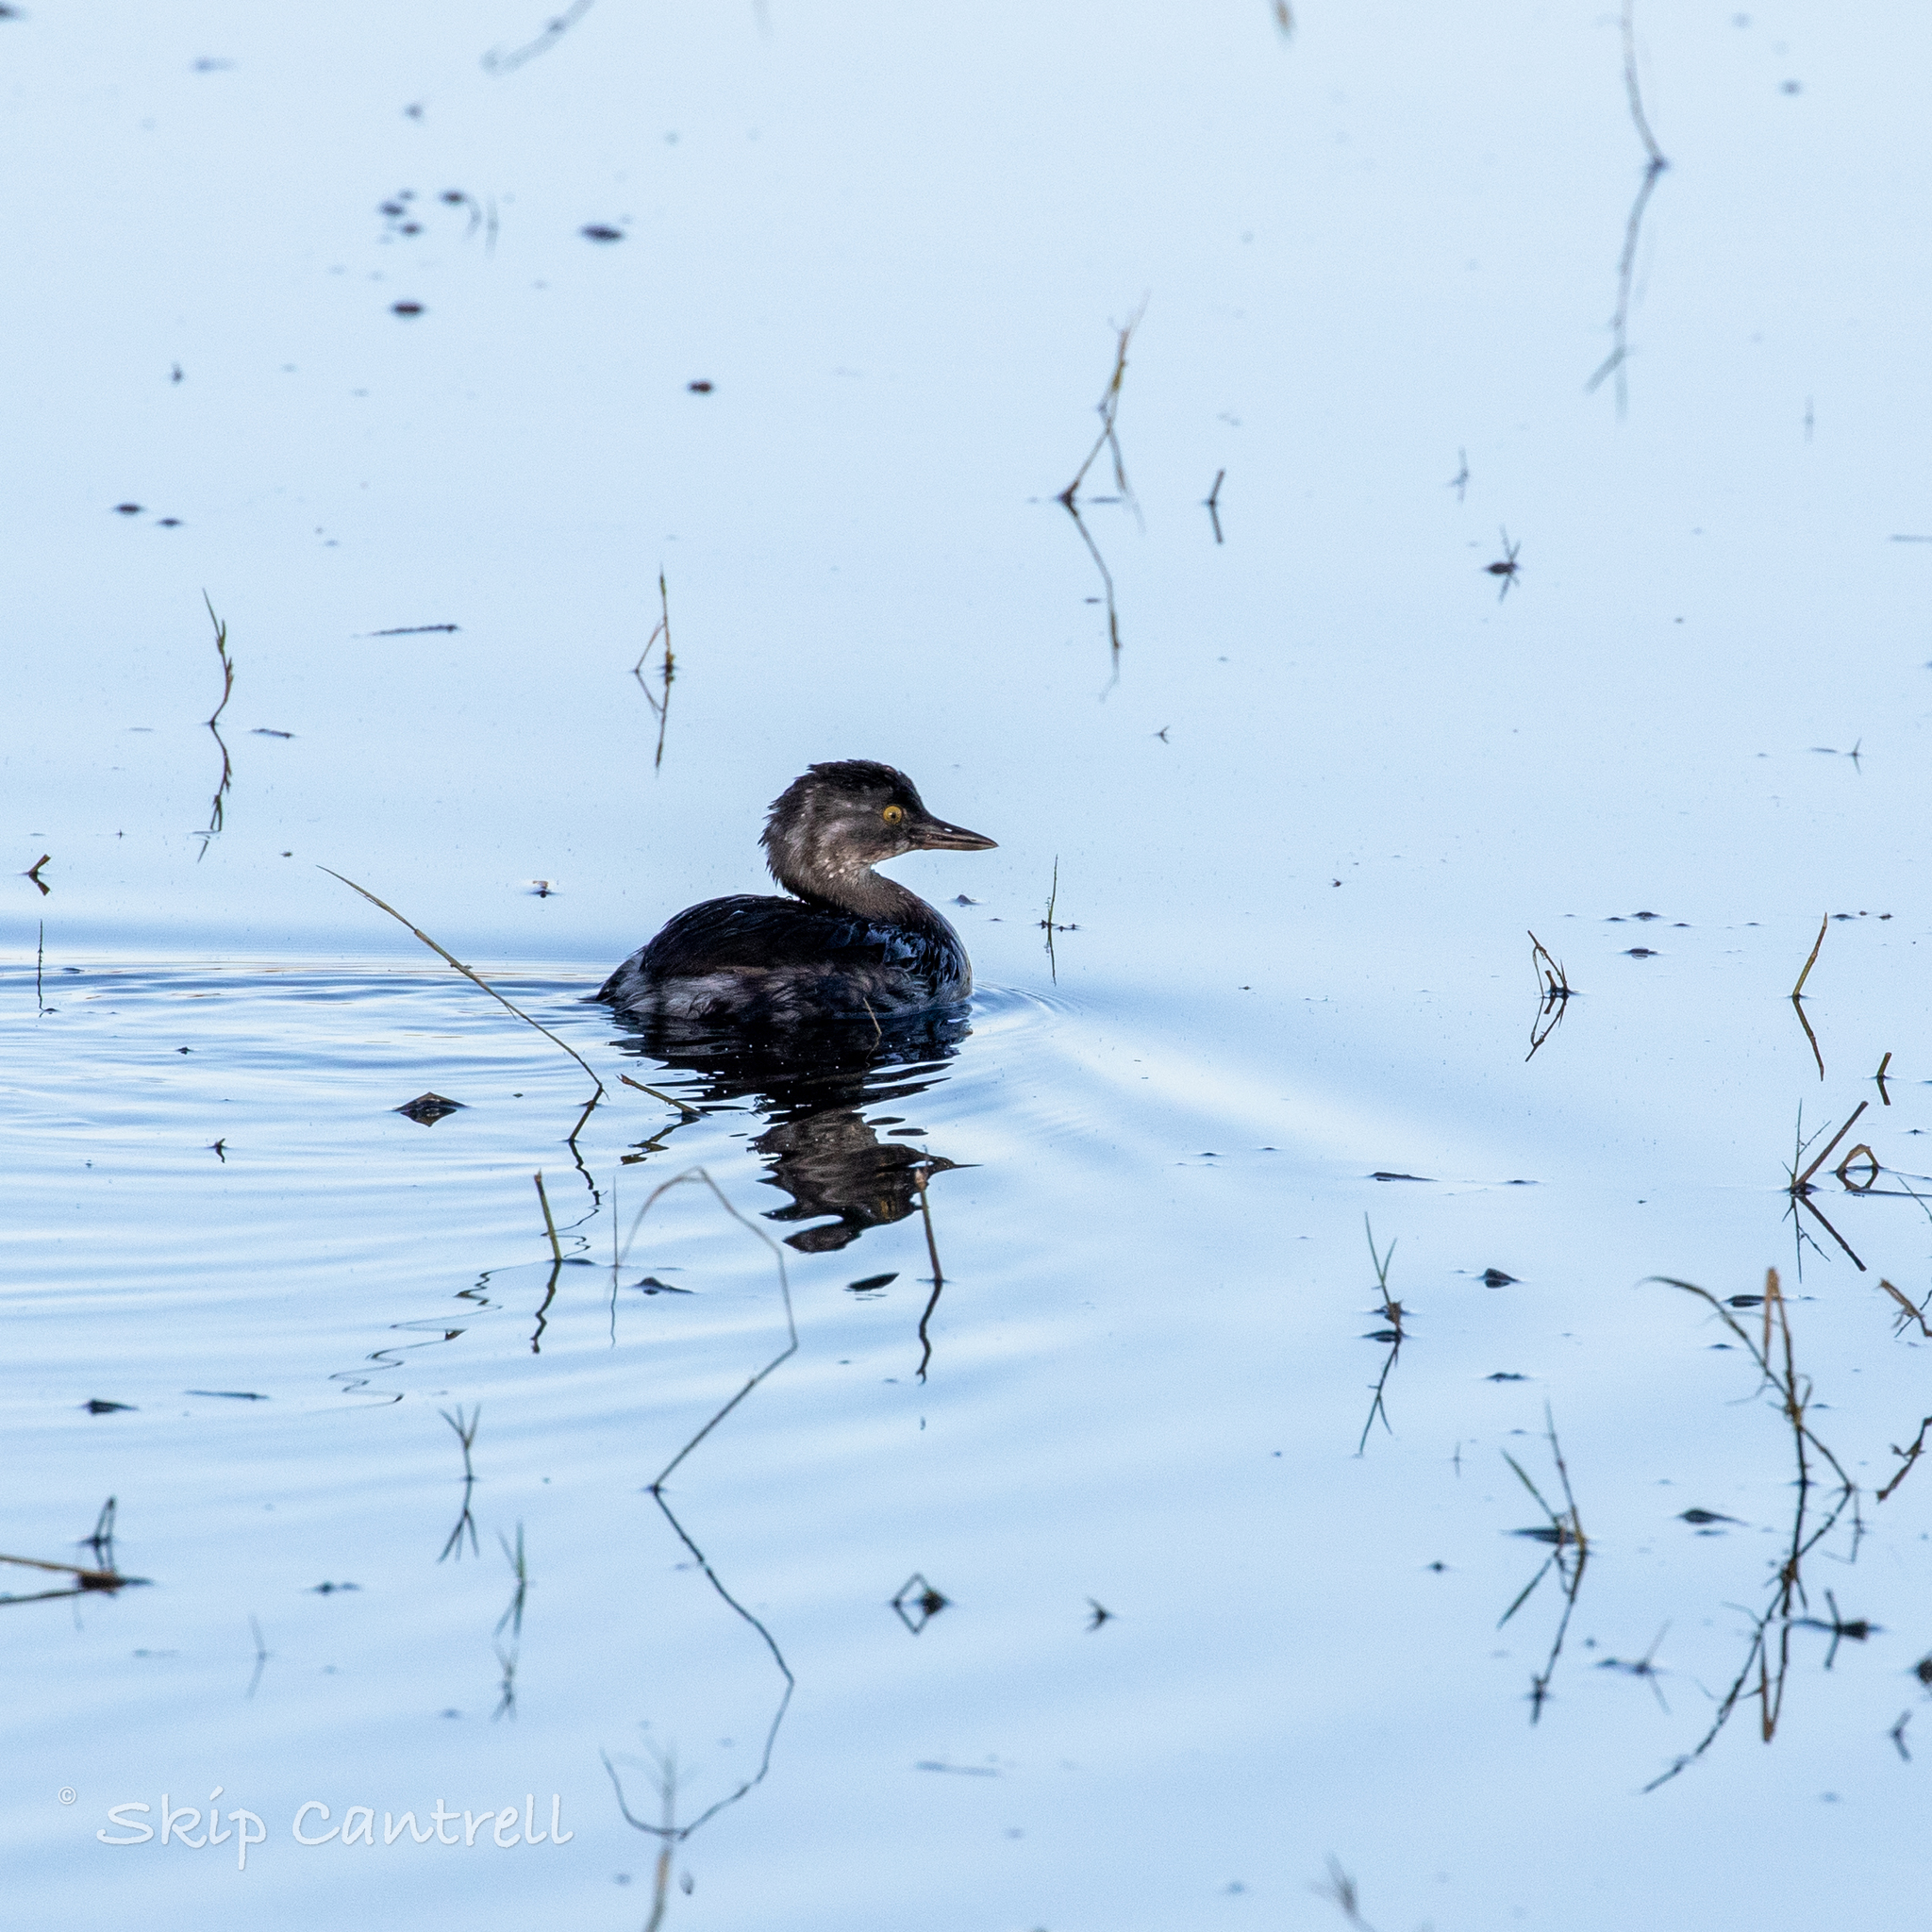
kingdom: Animalia
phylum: Chordata
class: Aves
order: Podicipediformes
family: Podicipedidae
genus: Tachybaptus
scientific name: Tachybaptus dominicus
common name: Least grebe
